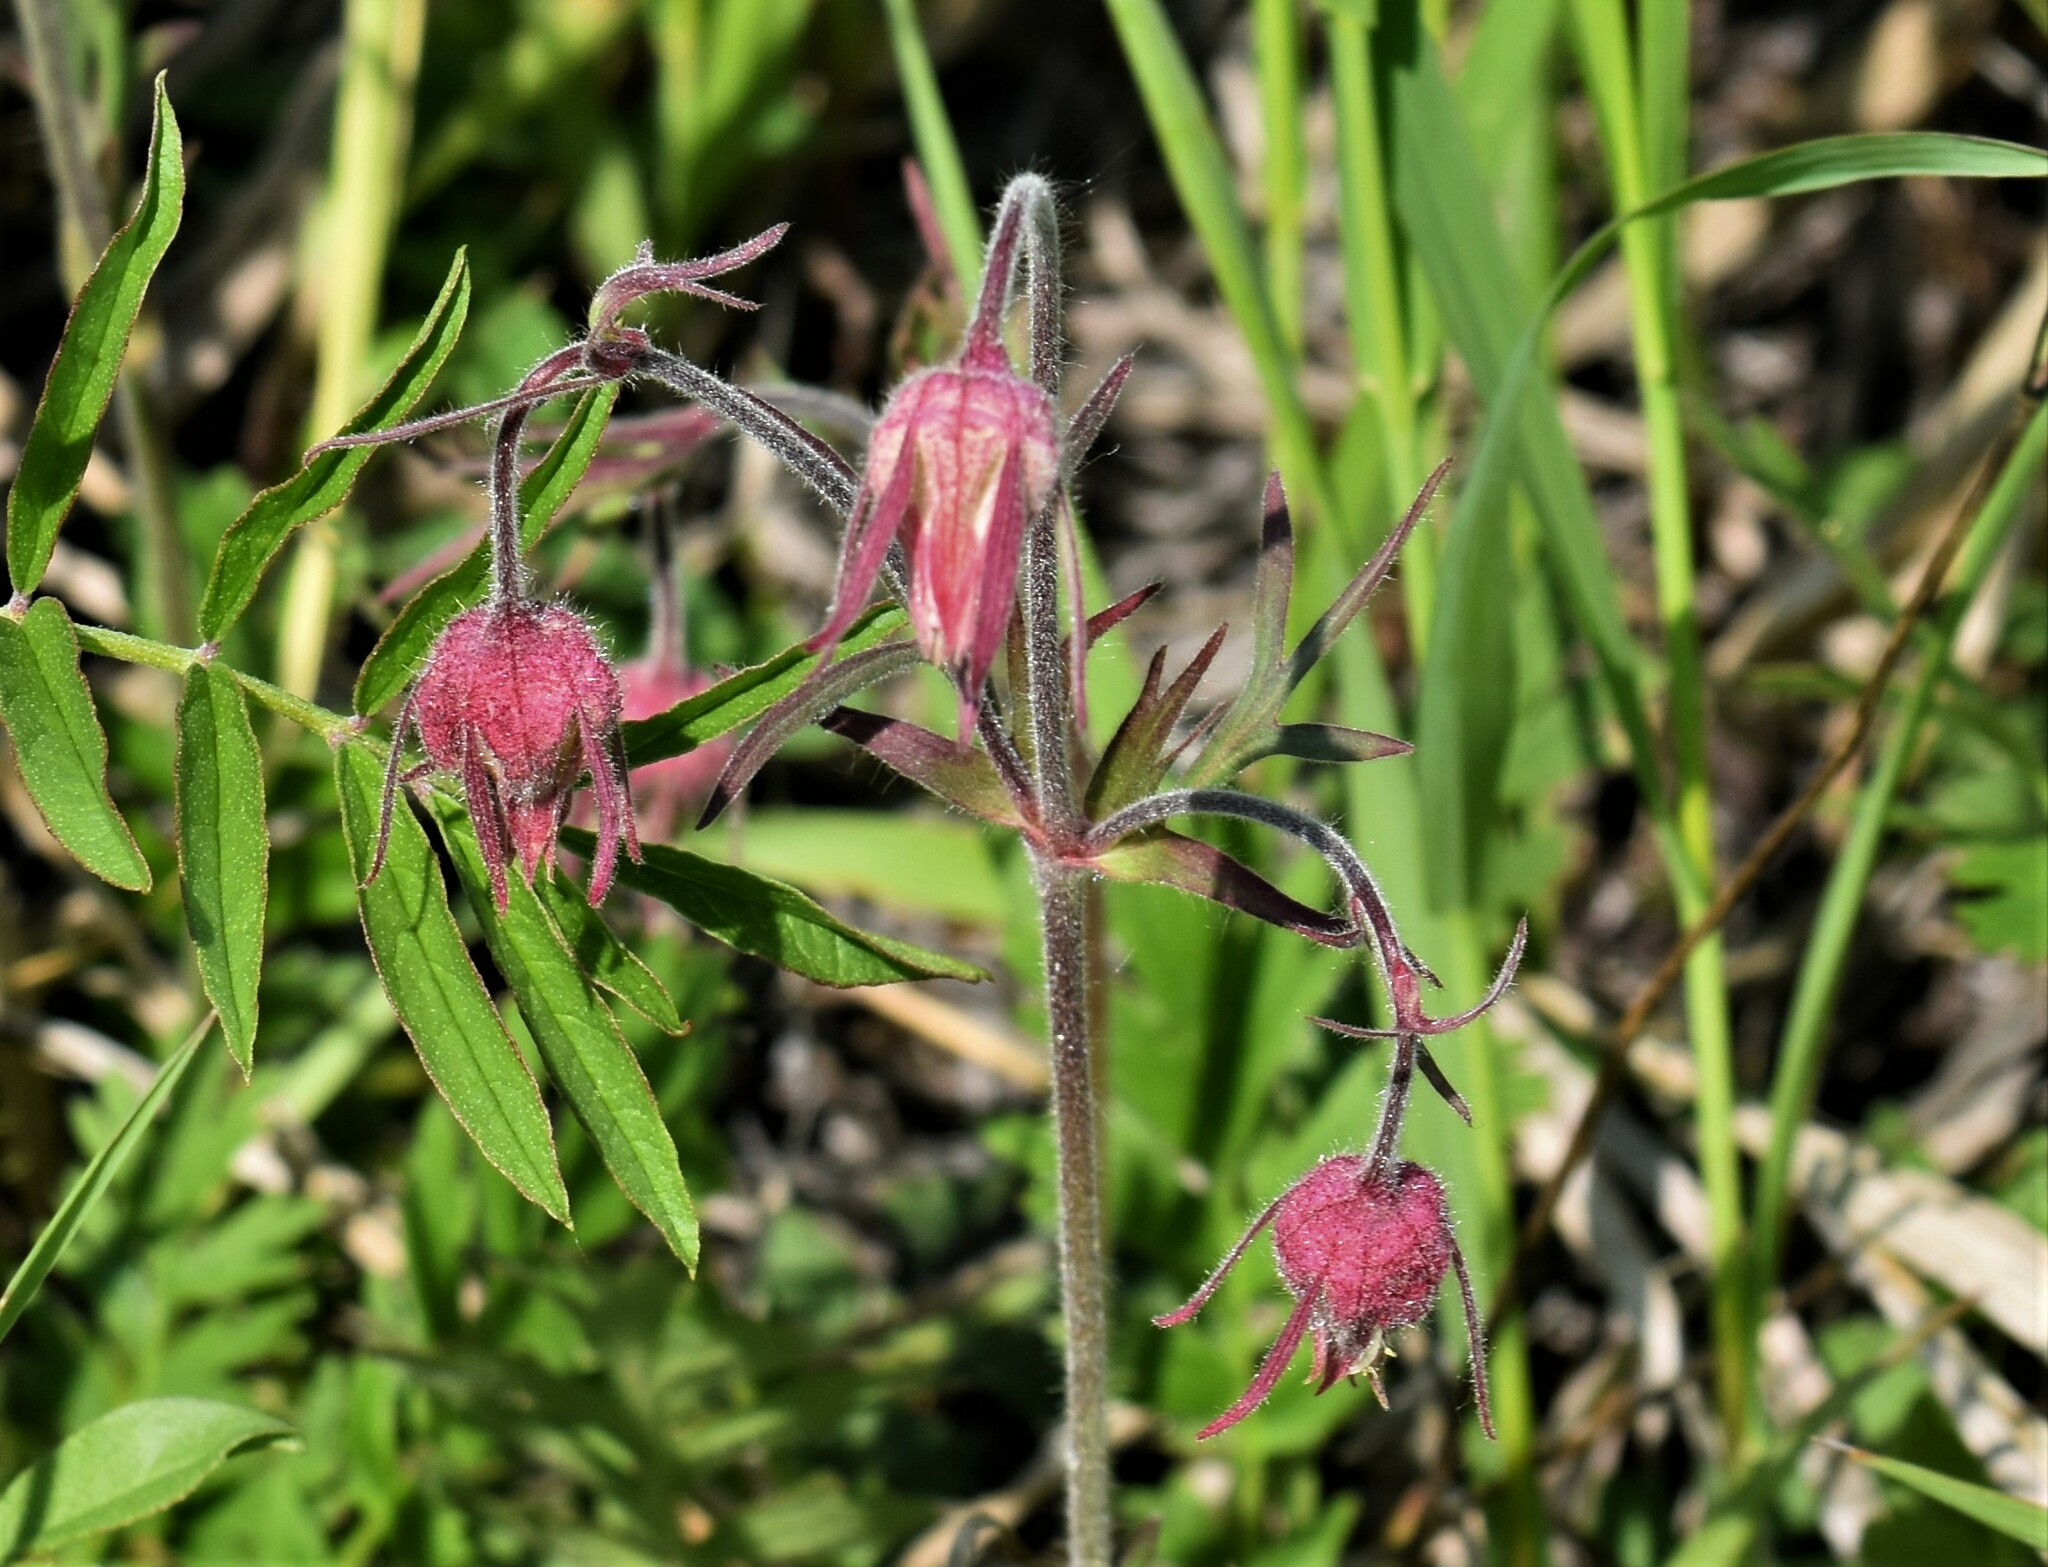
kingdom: Plantae
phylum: Tracheophyta
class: Magnoliopsida
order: Rosales
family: Rosaceae
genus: Geum
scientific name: Geum triflorum
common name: Old man's whiskers
